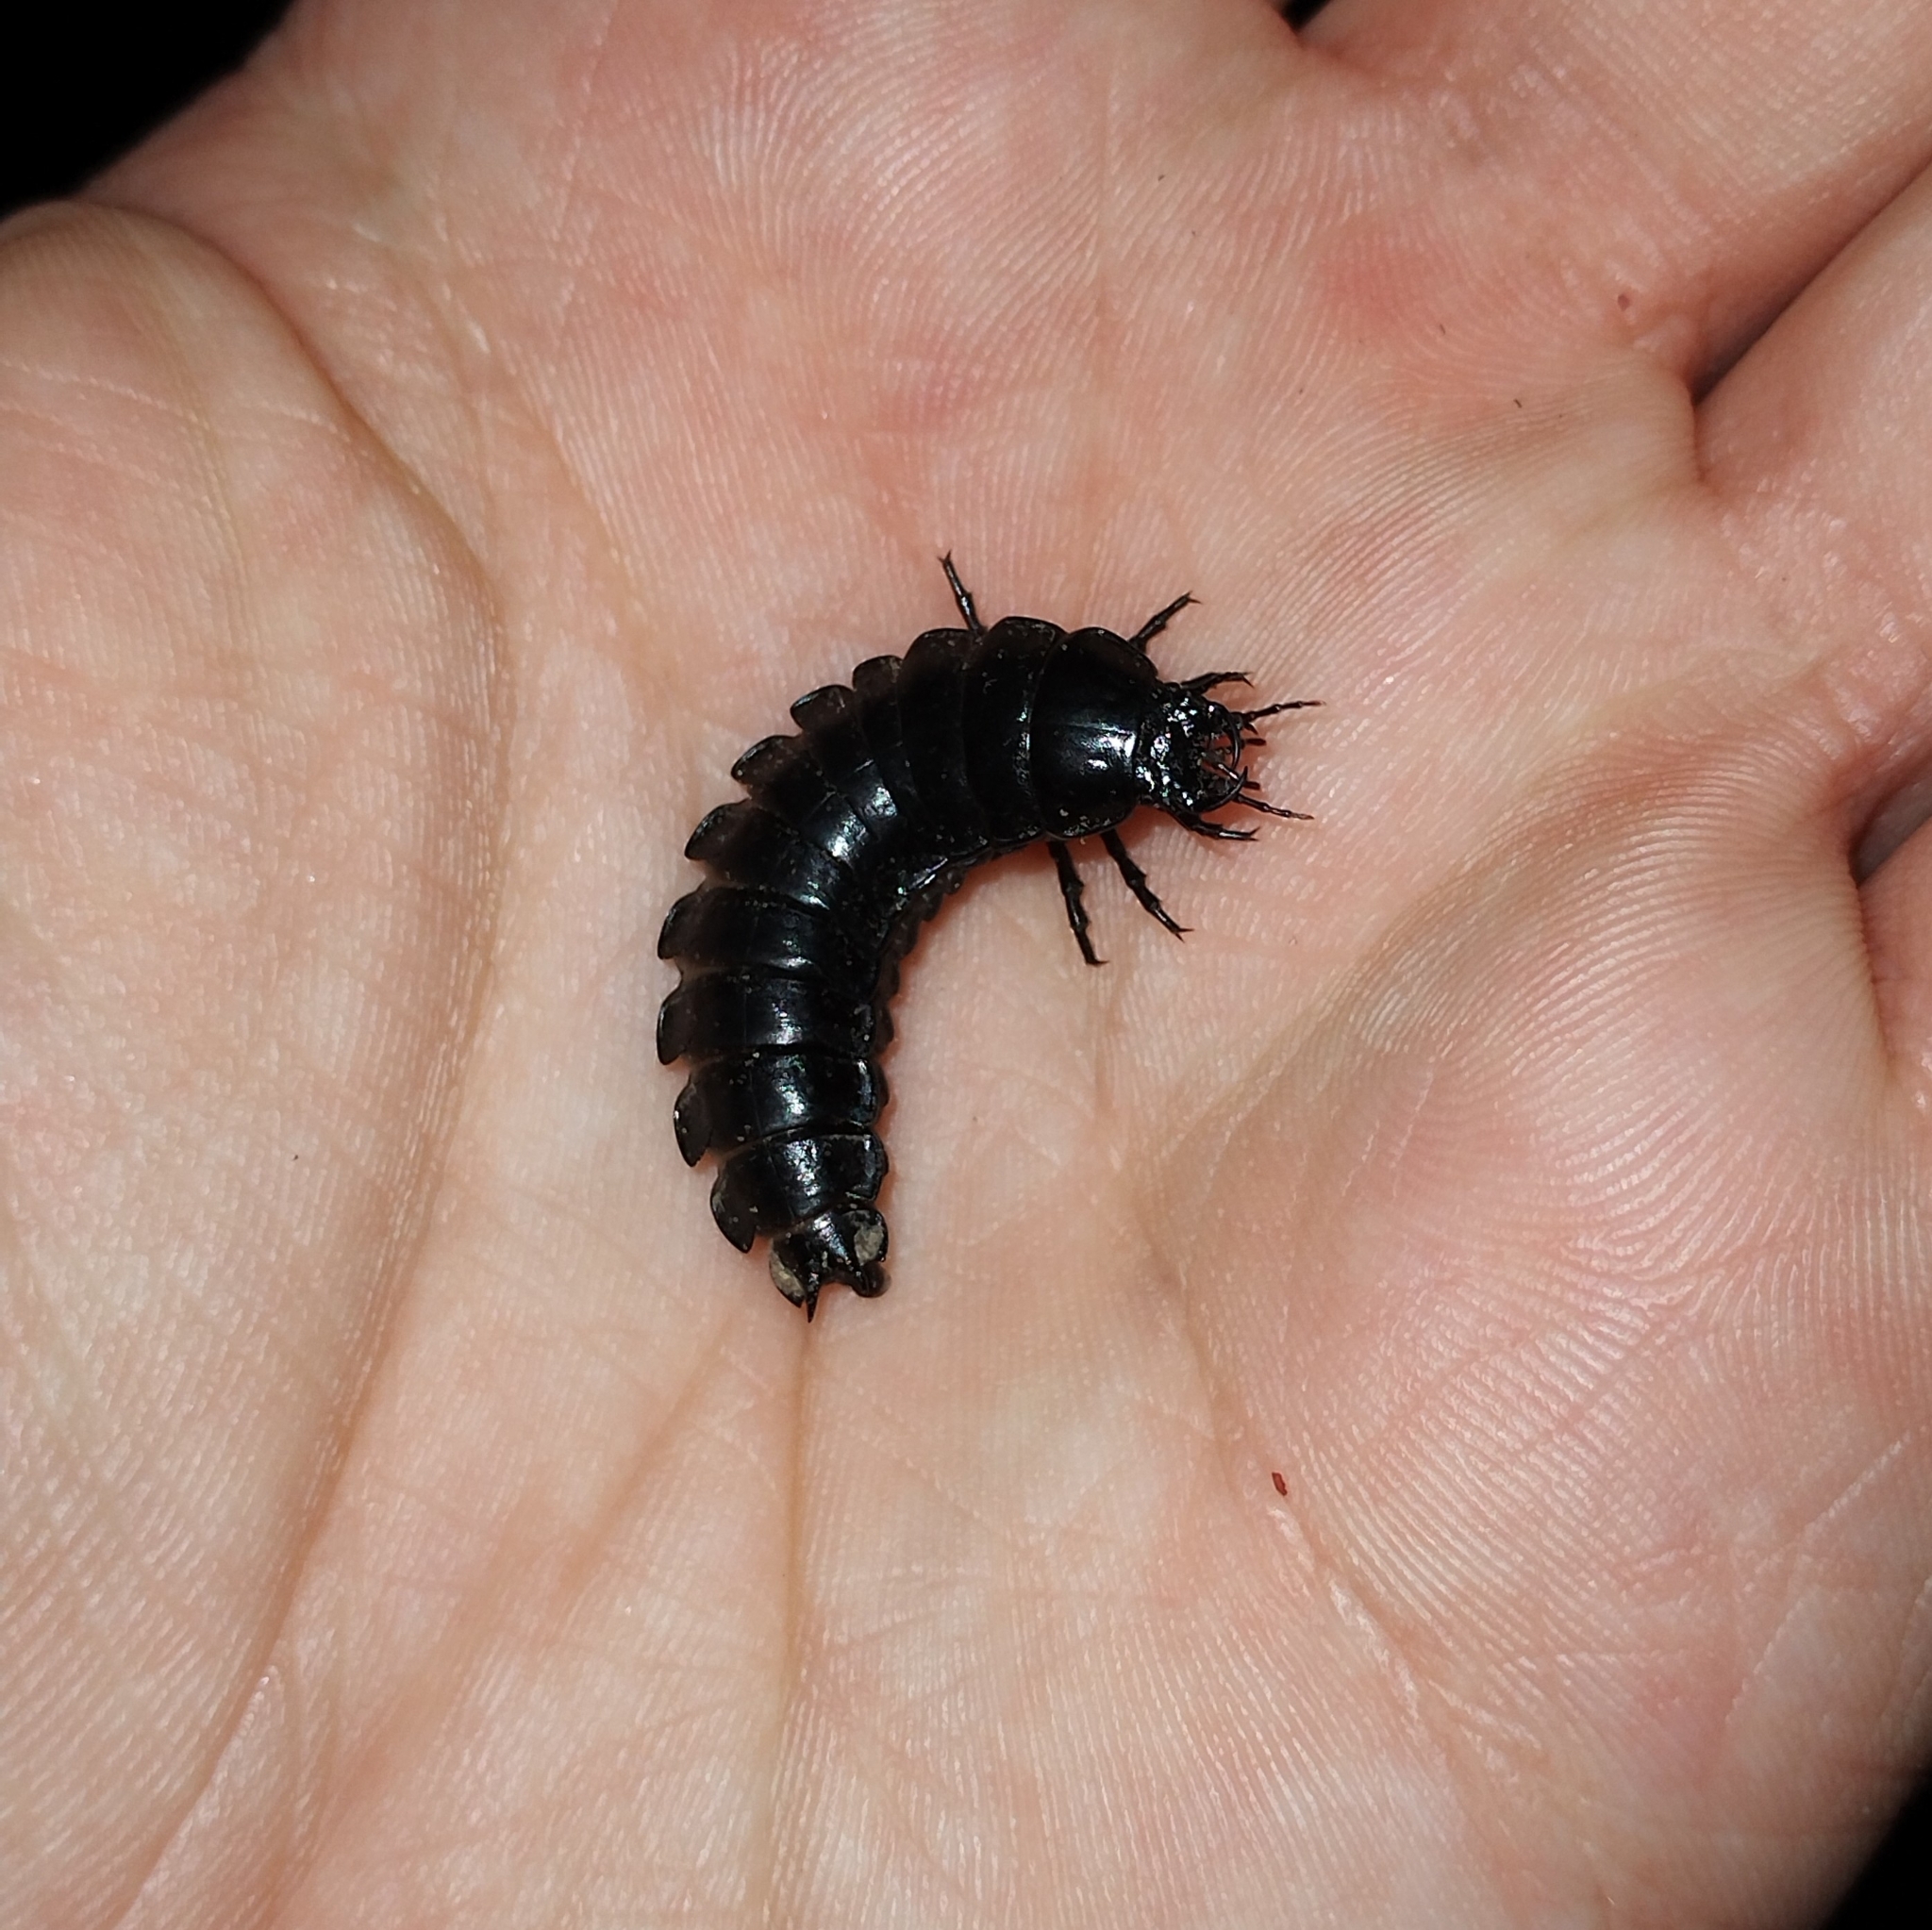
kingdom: Animalia
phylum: Arthropoda
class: Insecta
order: Coleoptera
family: Carabidae
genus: Carabus
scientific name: Carabus
